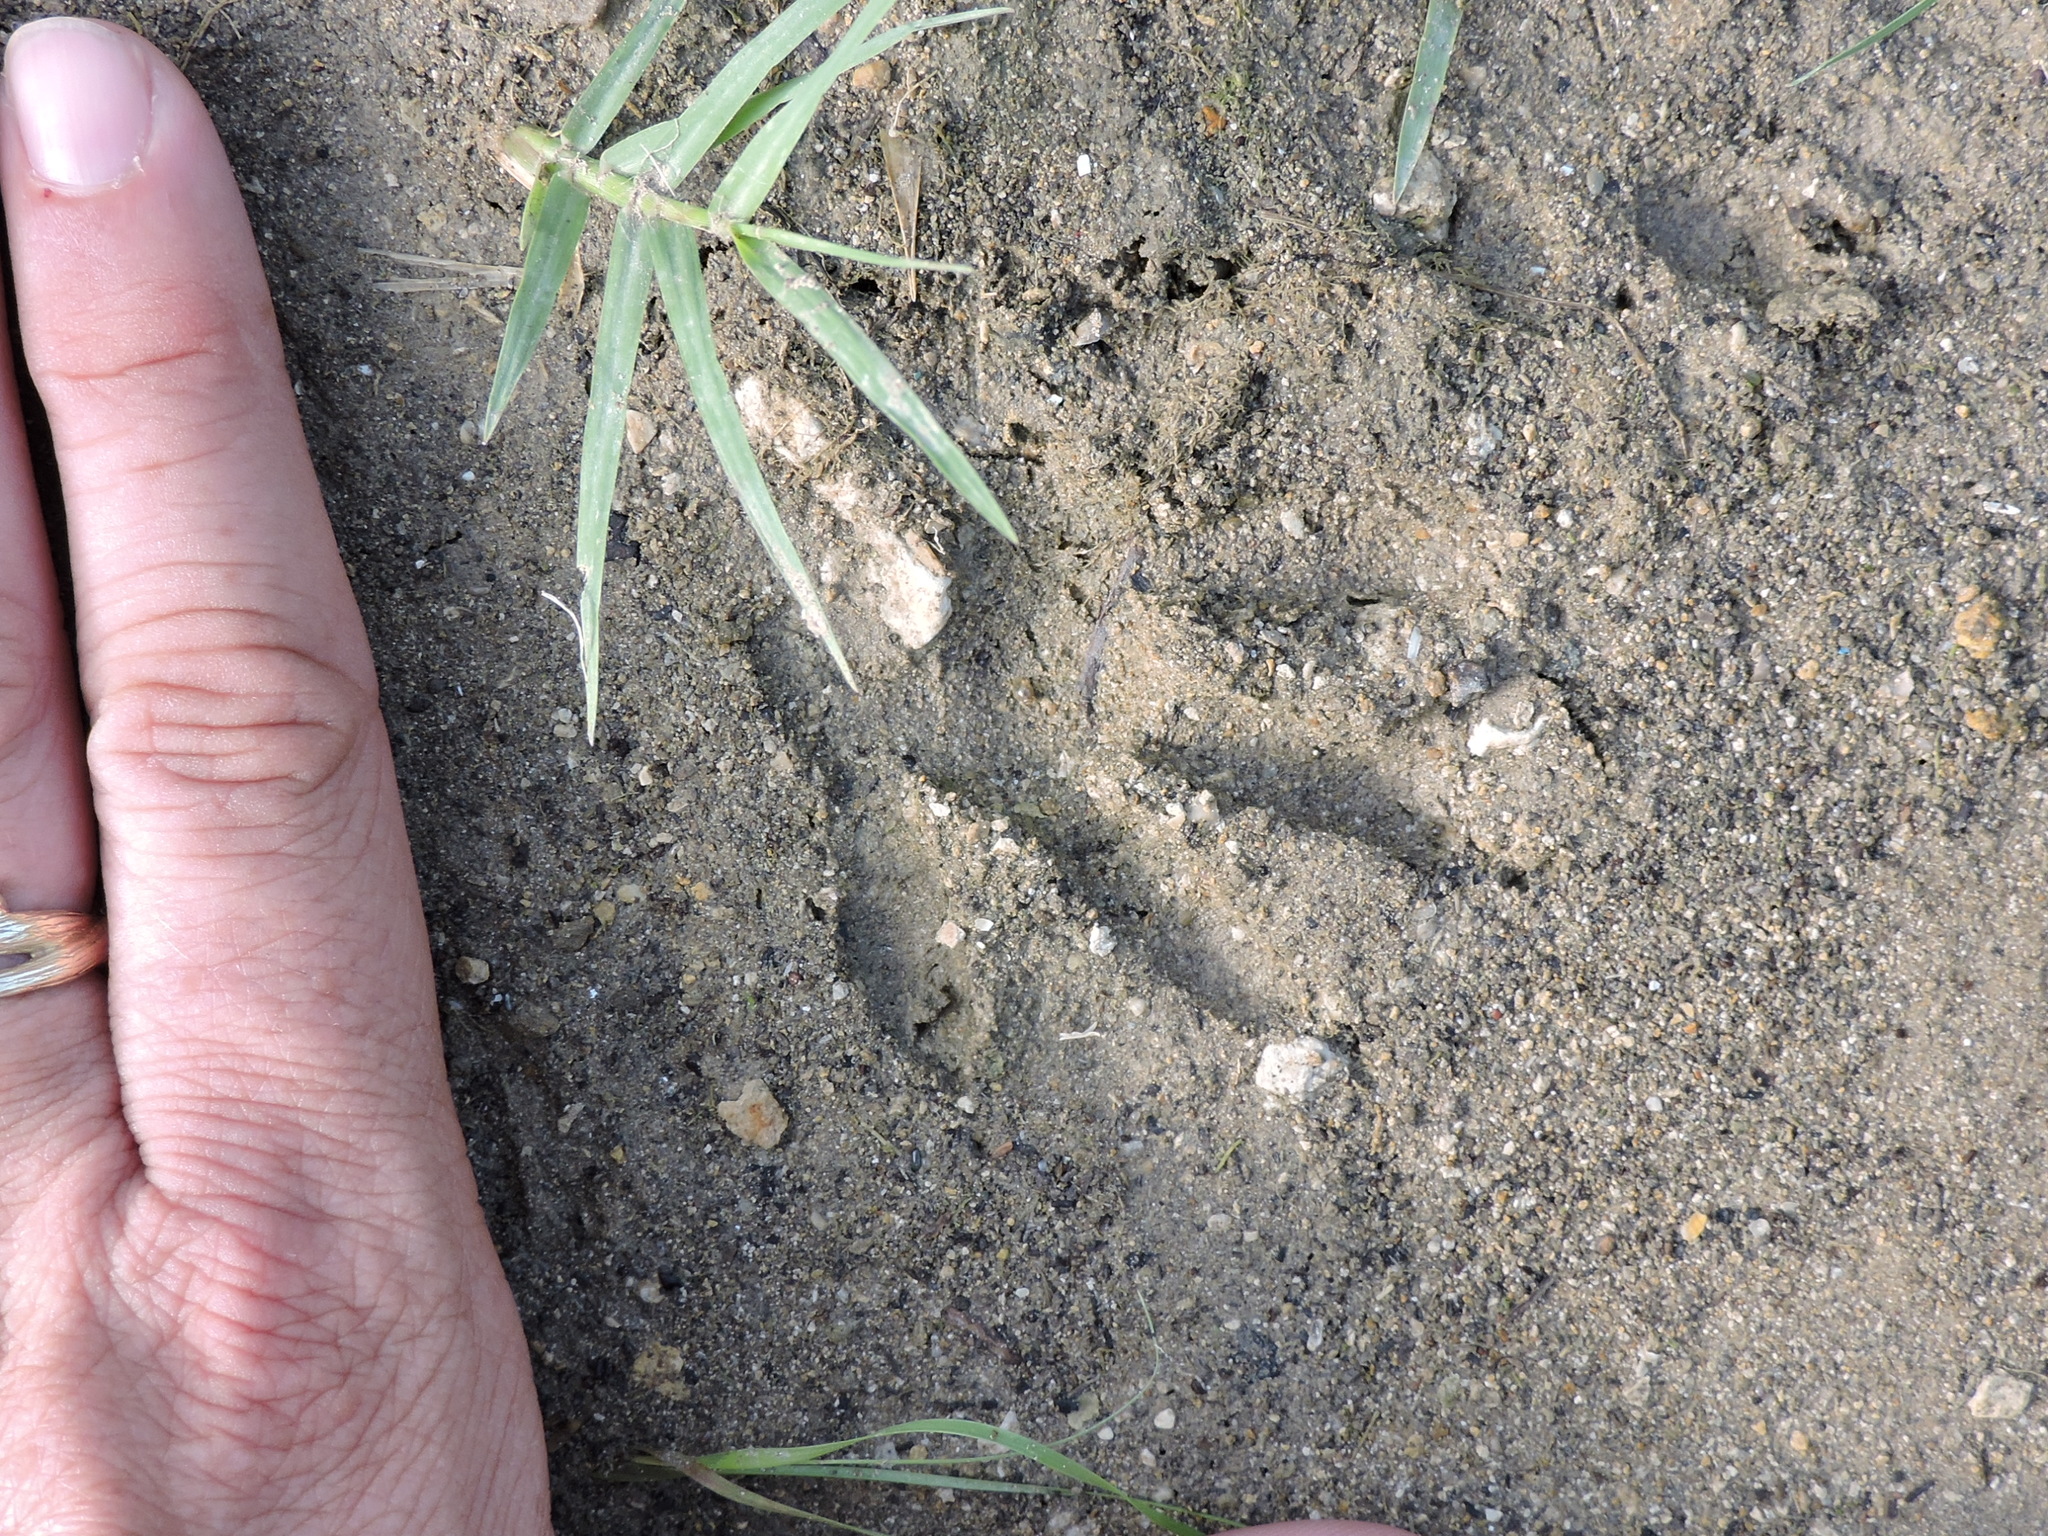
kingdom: Animalia
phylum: Chordata
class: Mammalia
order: Carnivora
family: Procyonidae
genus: Procyon
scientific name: Procyon lotor
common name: Raccoon
